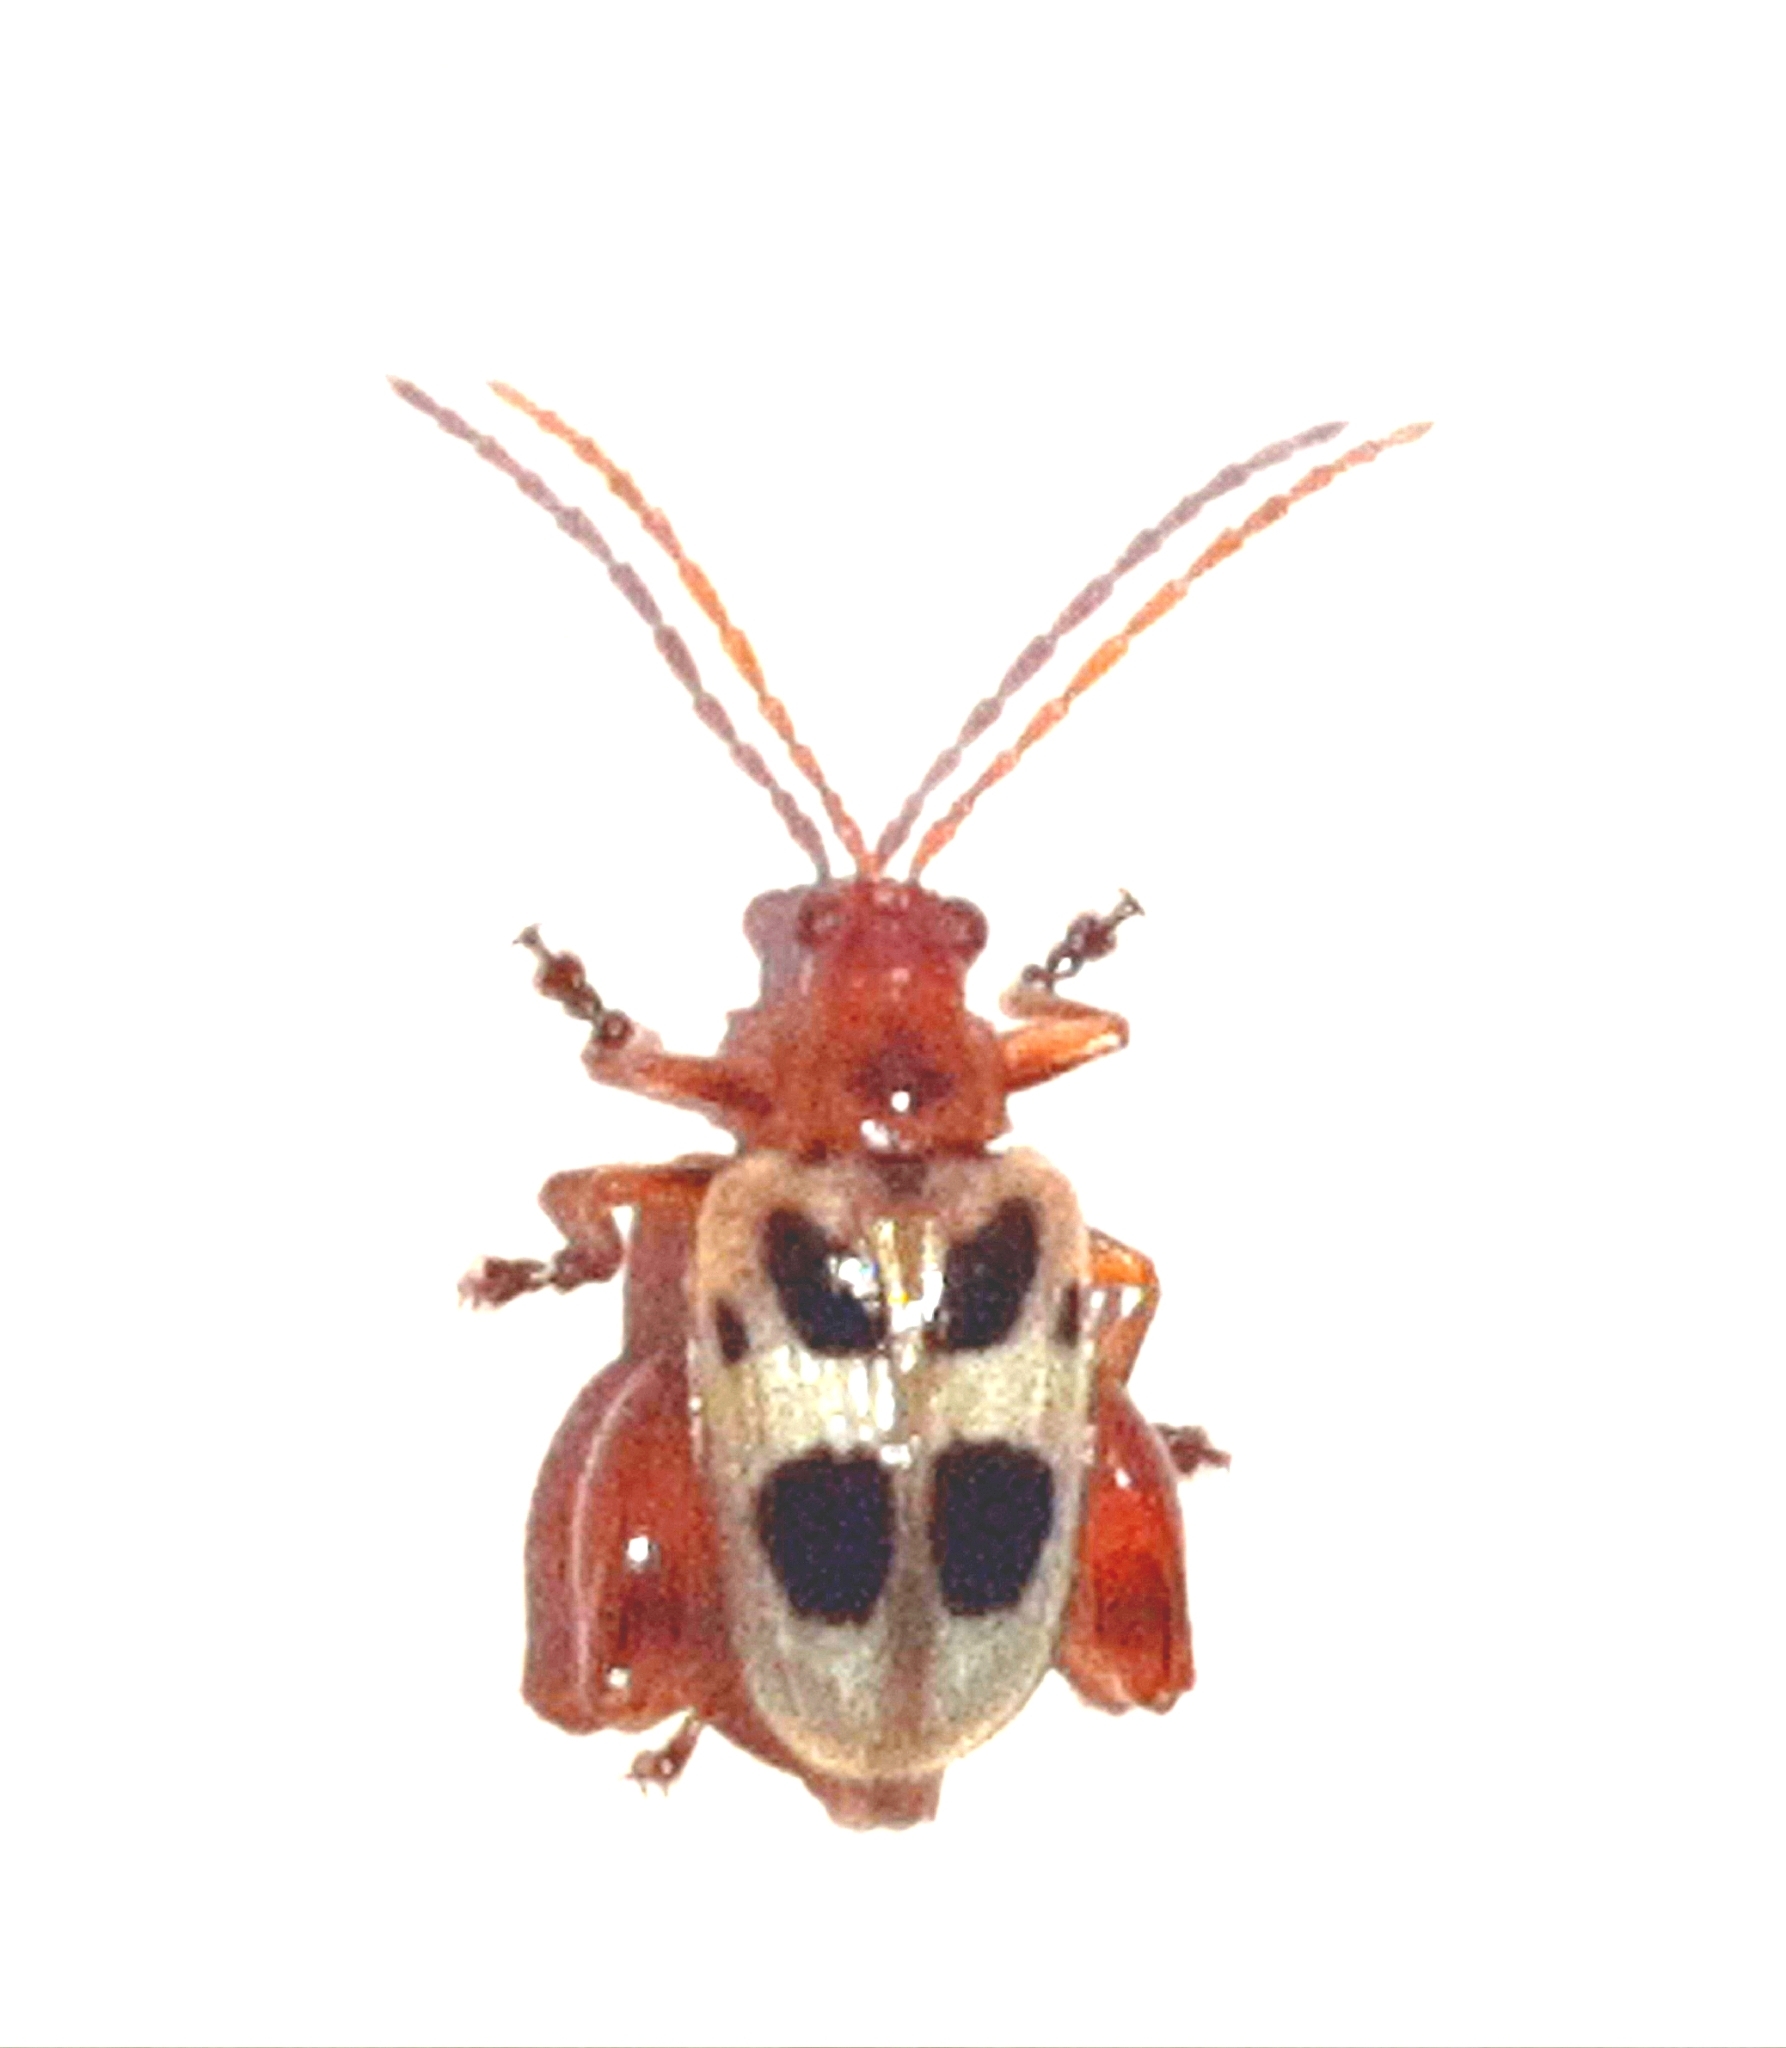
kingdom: Animalia
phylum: Arthropoda
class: Insecta
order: Coleoptera
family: Chrysomelidae
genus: Allochroma
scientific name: Allochroma
